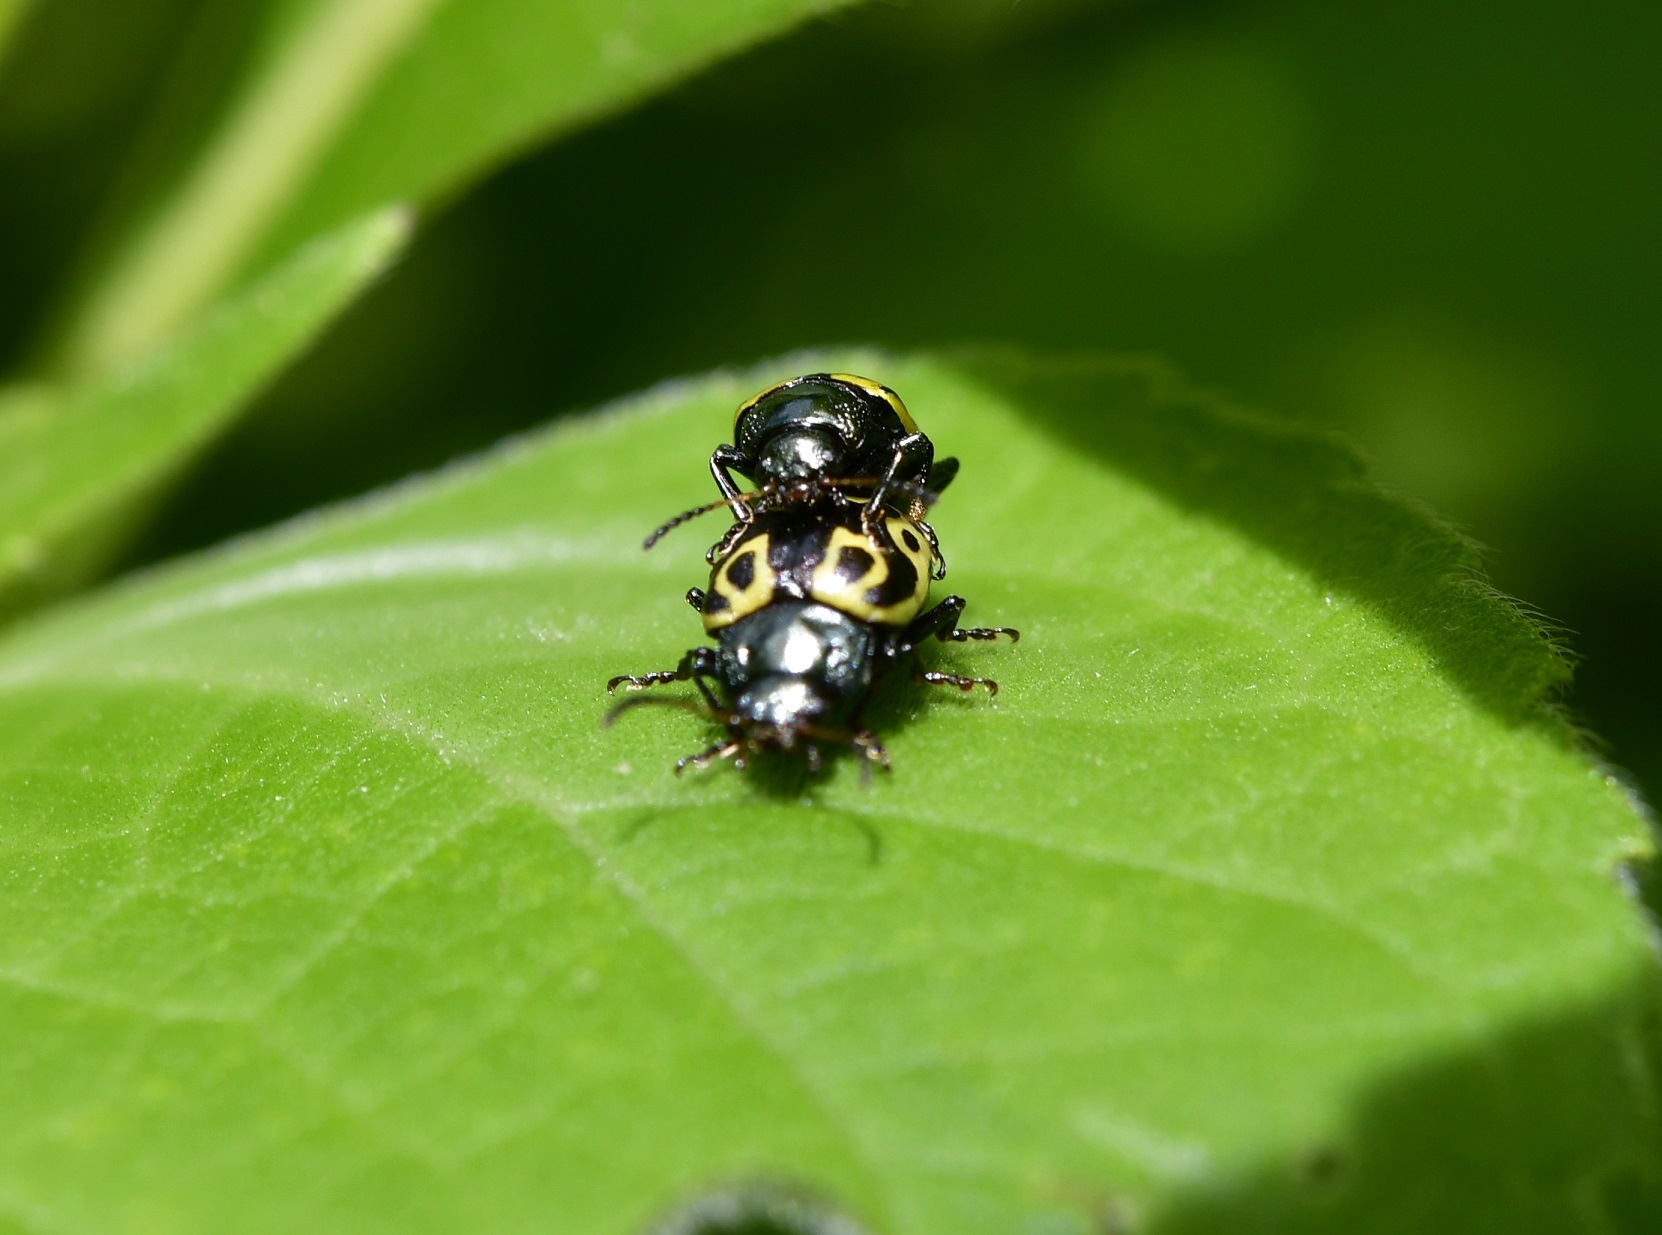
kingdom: Animalia
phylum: Arthropoda
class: Insecta
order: Coleoptera
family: Chrysomelidae
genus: Calligrapha
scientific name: Calligrapha
